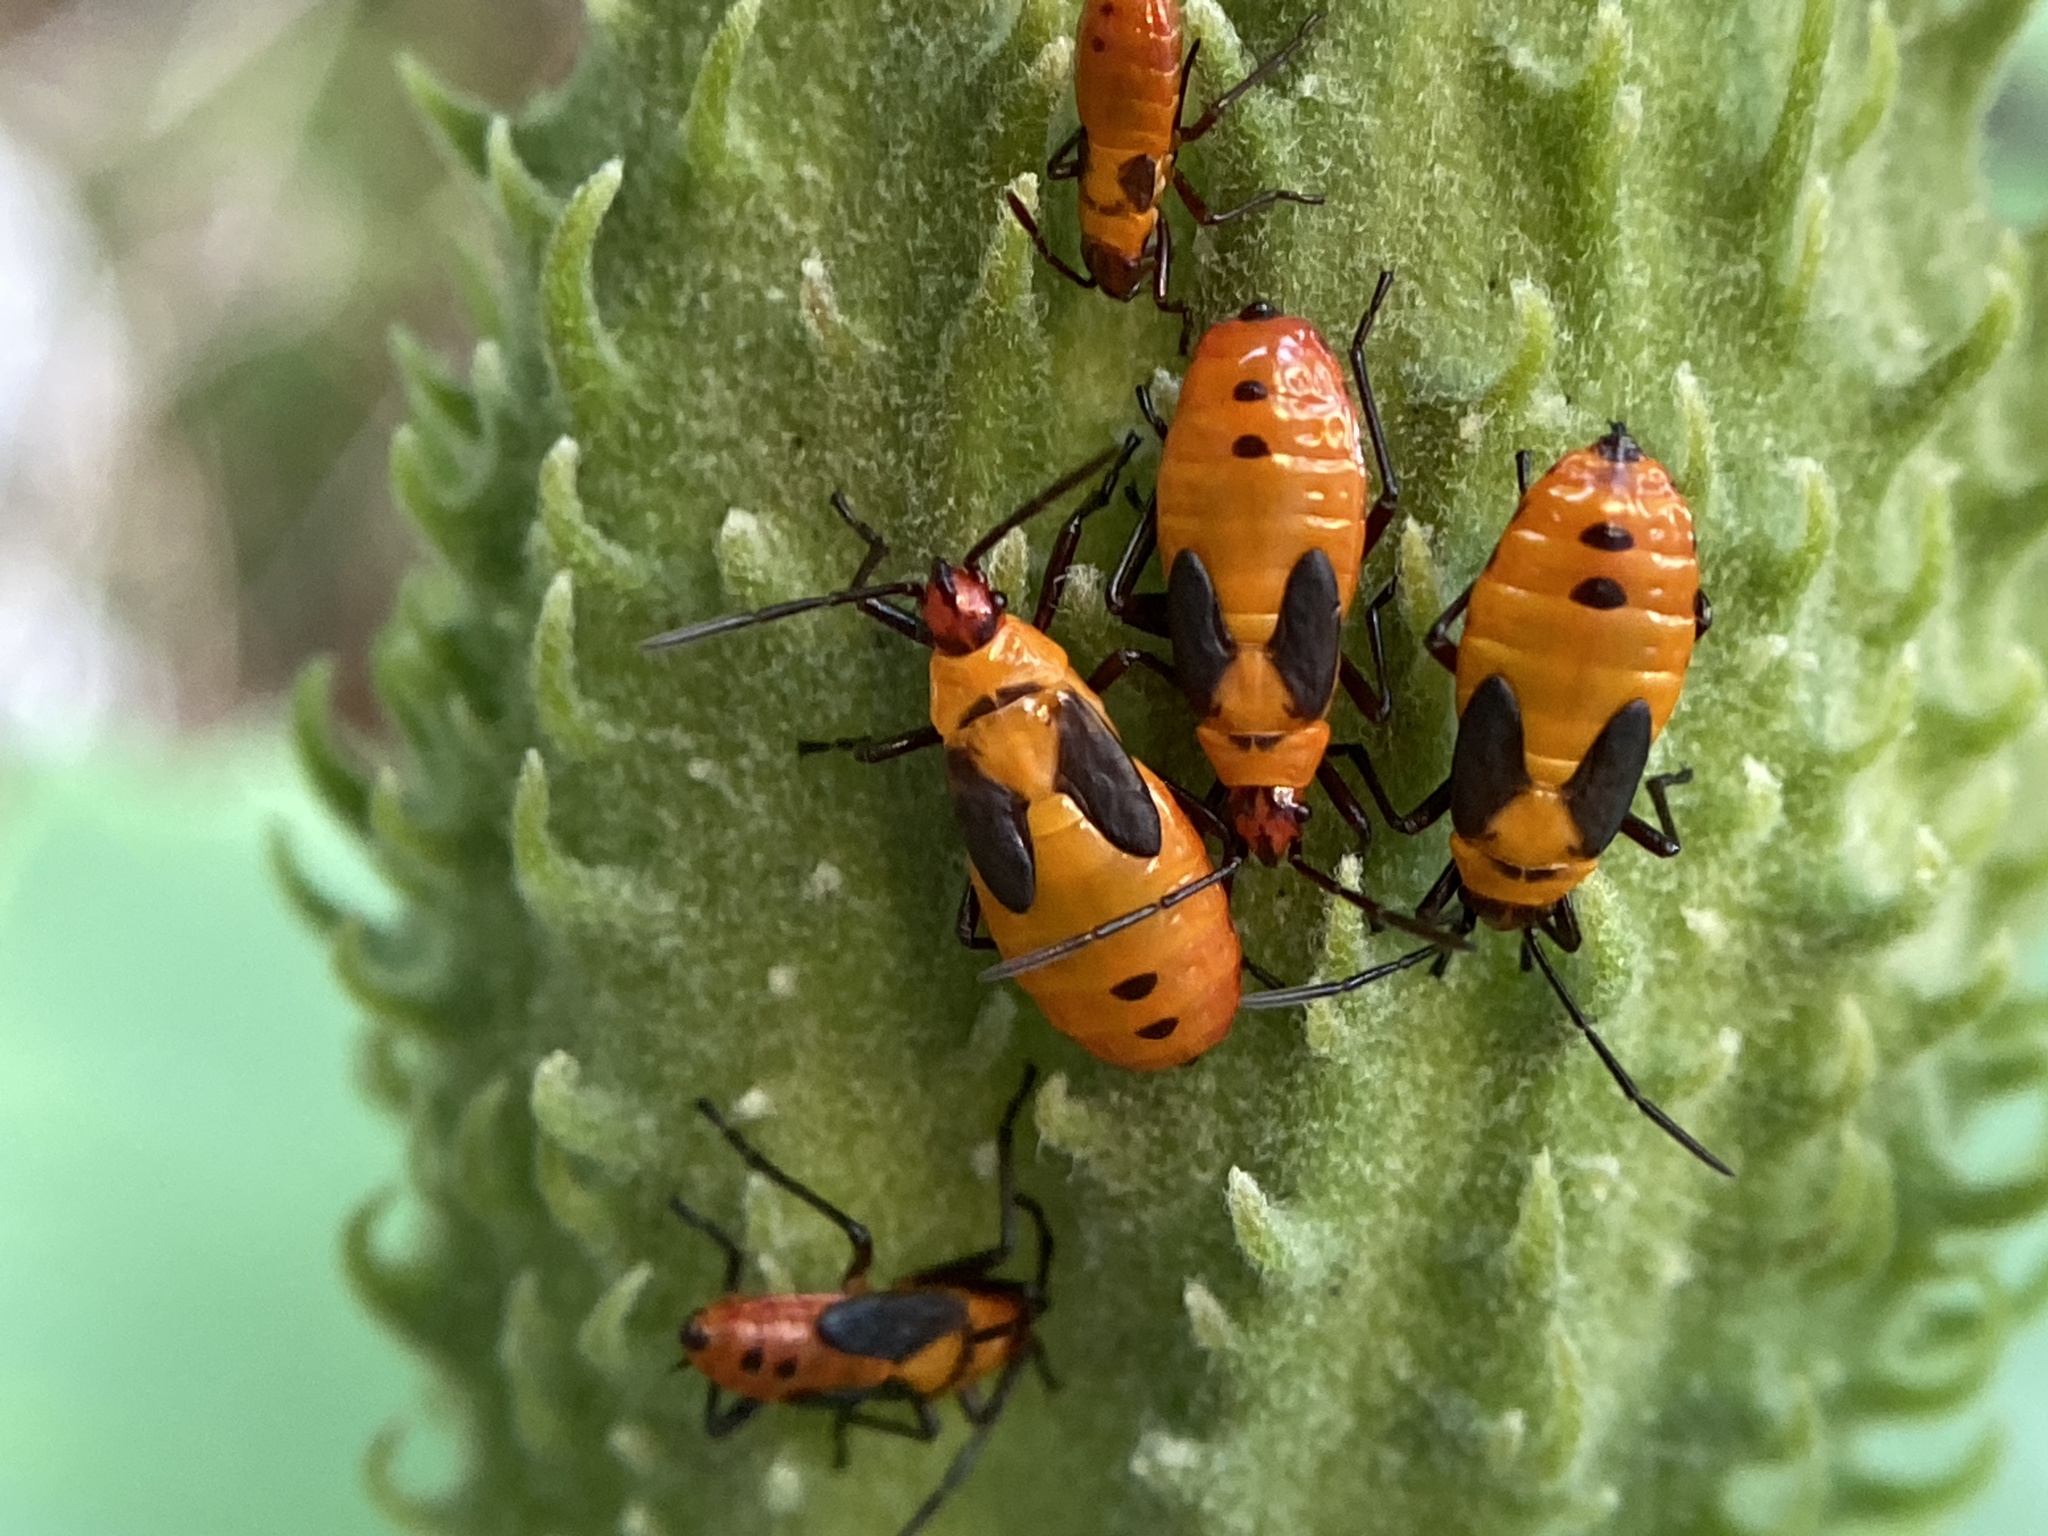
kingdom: Animalia
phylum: Arthropoda
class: Insecta
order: Hemiptera
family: Lygaeidae
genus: Oncopeltus
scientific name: Oncopeltus fasciatus
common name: Large milkweed bug
